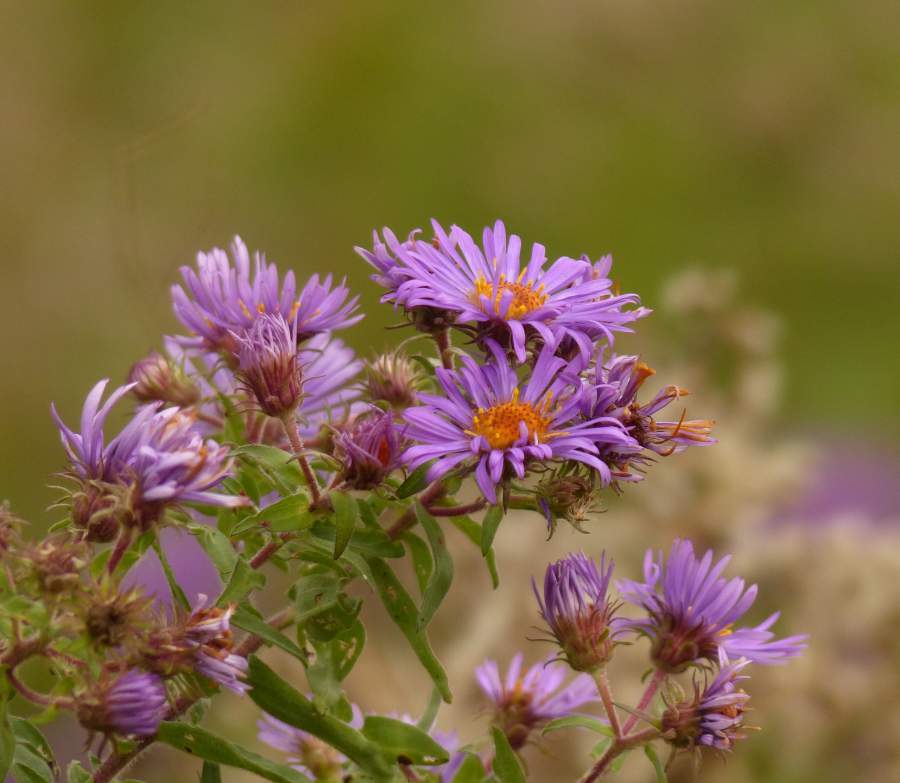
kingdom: Plantae
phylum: Tracheophyta
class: Magnoliopsida
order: Asterales
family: Asteraceae
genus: Symphyotrichum
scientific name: Symphyotrichum novae-angliae
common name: Michaelmas daisy
